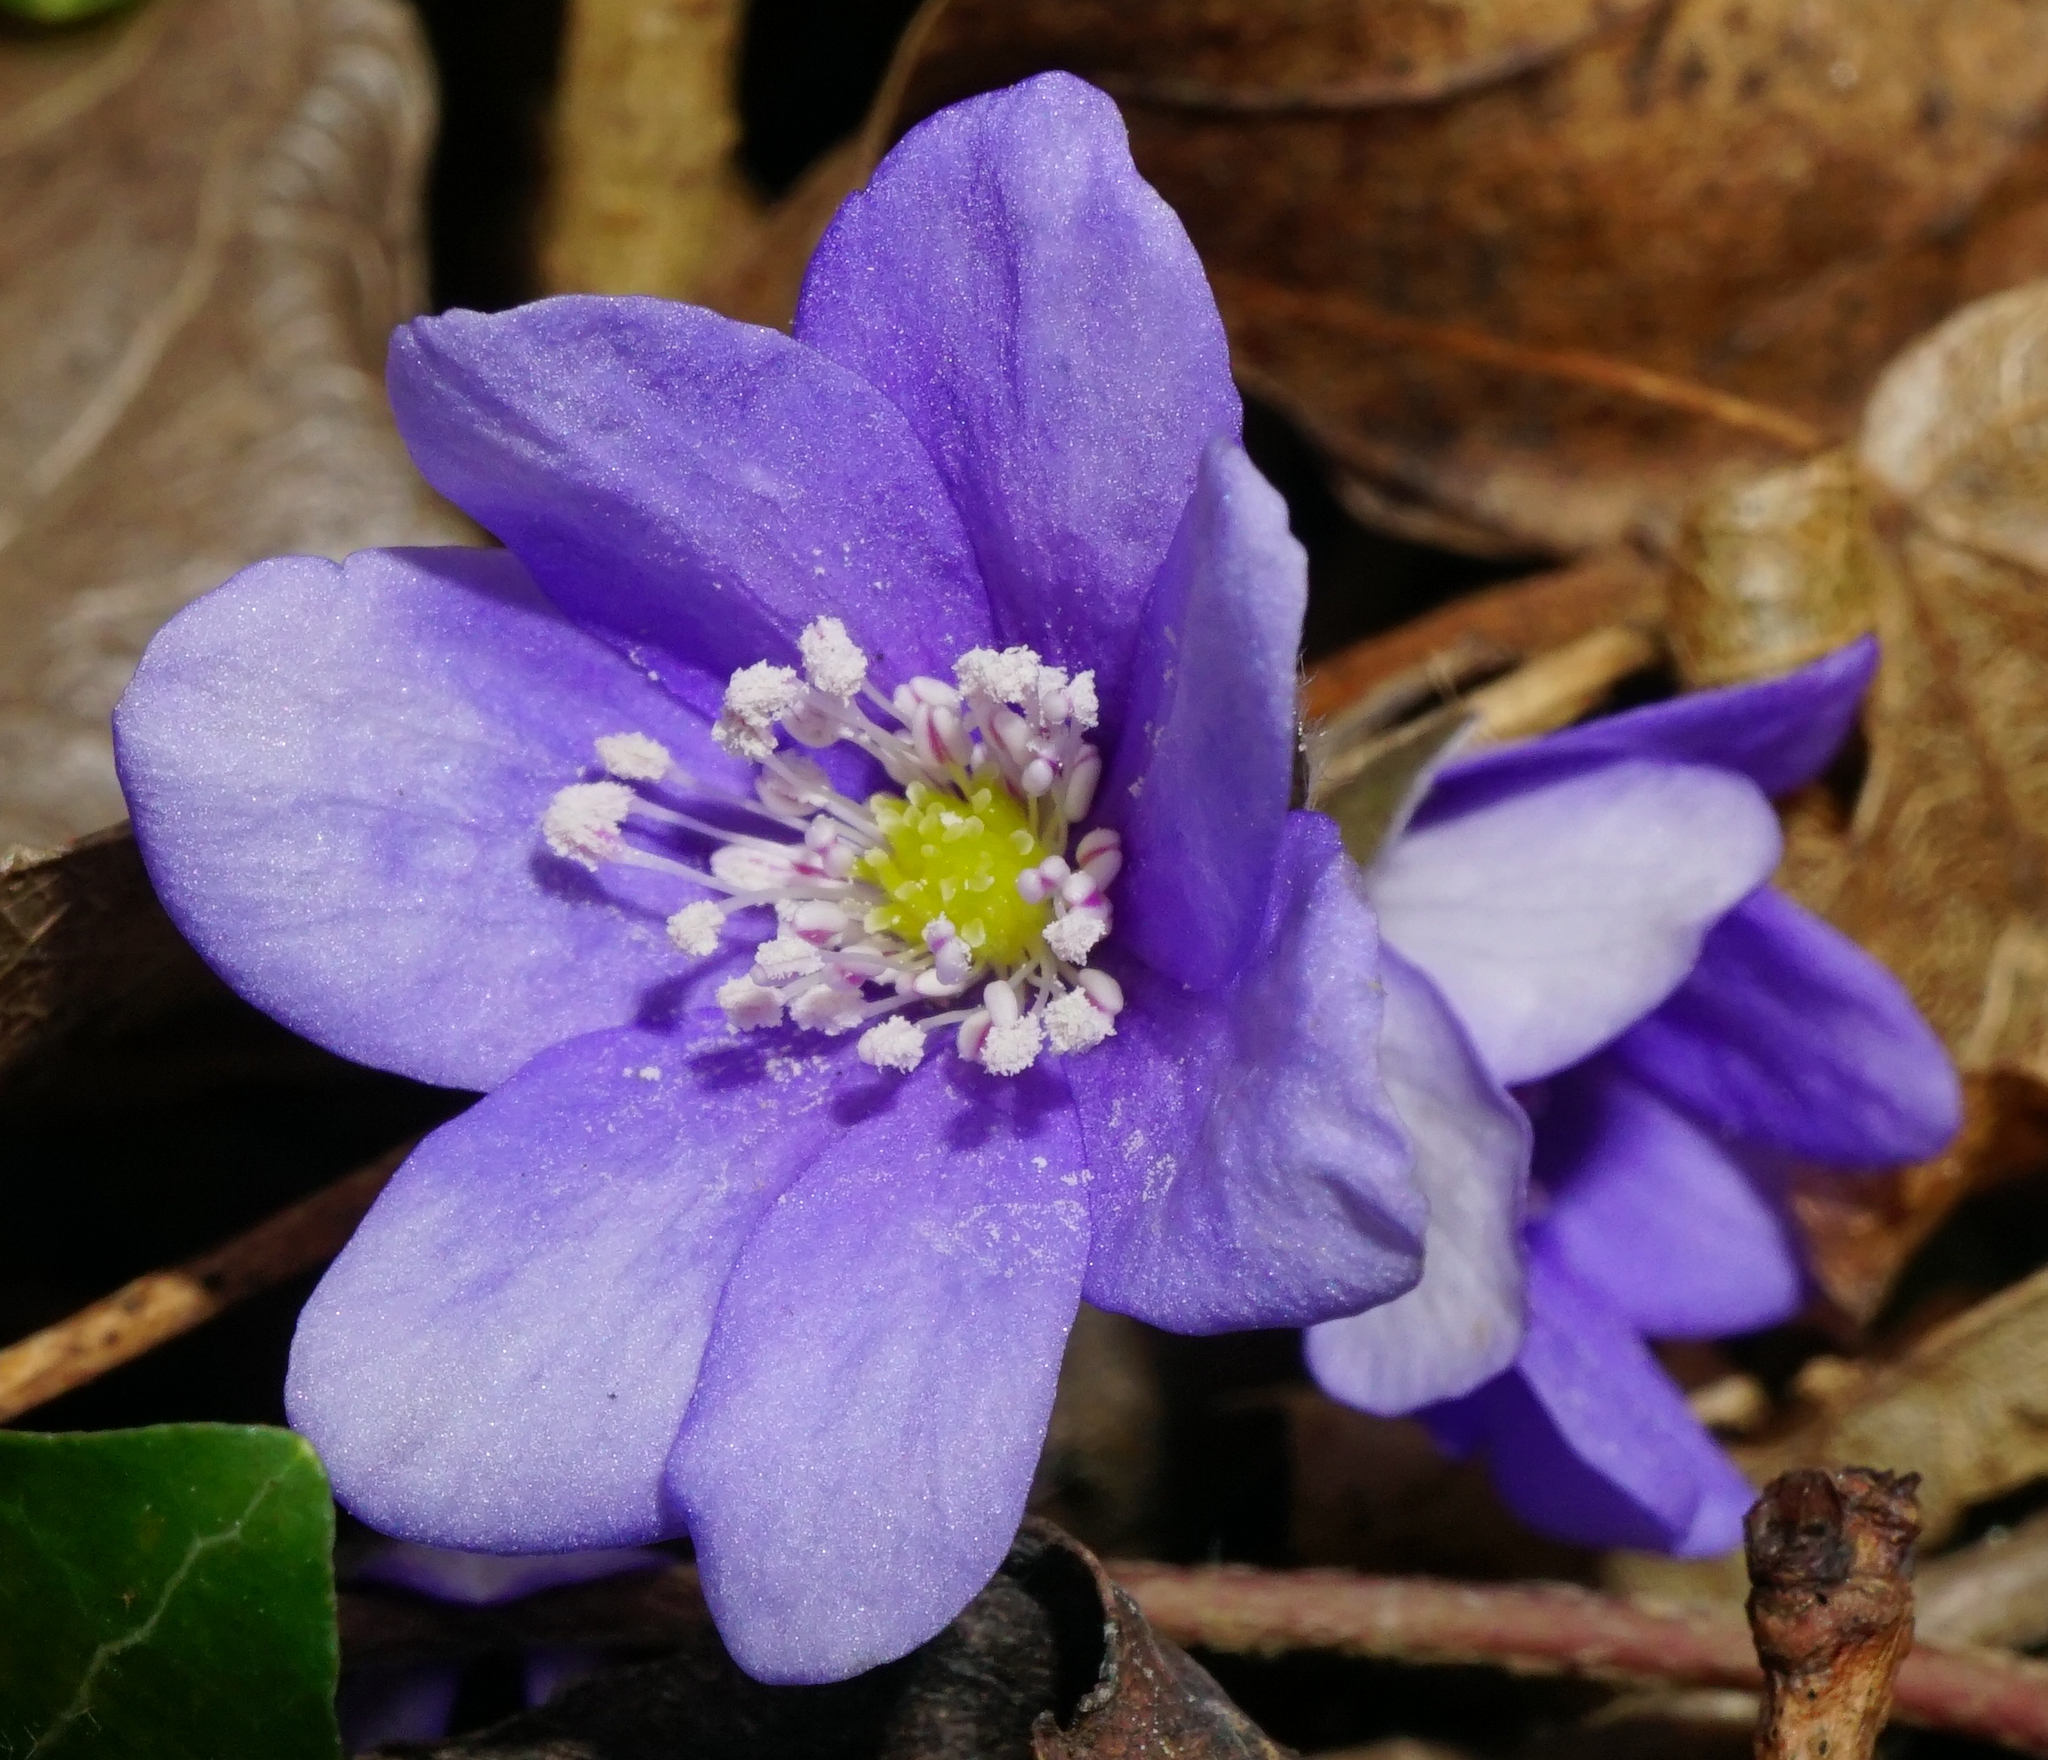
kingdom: Plantae
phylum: Tracheophyta
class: Magnoliopsida
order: Ranunculales
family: Ranunculaceae
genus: Hepatica
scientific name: Hepatica nobilis
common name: Liverleaf
